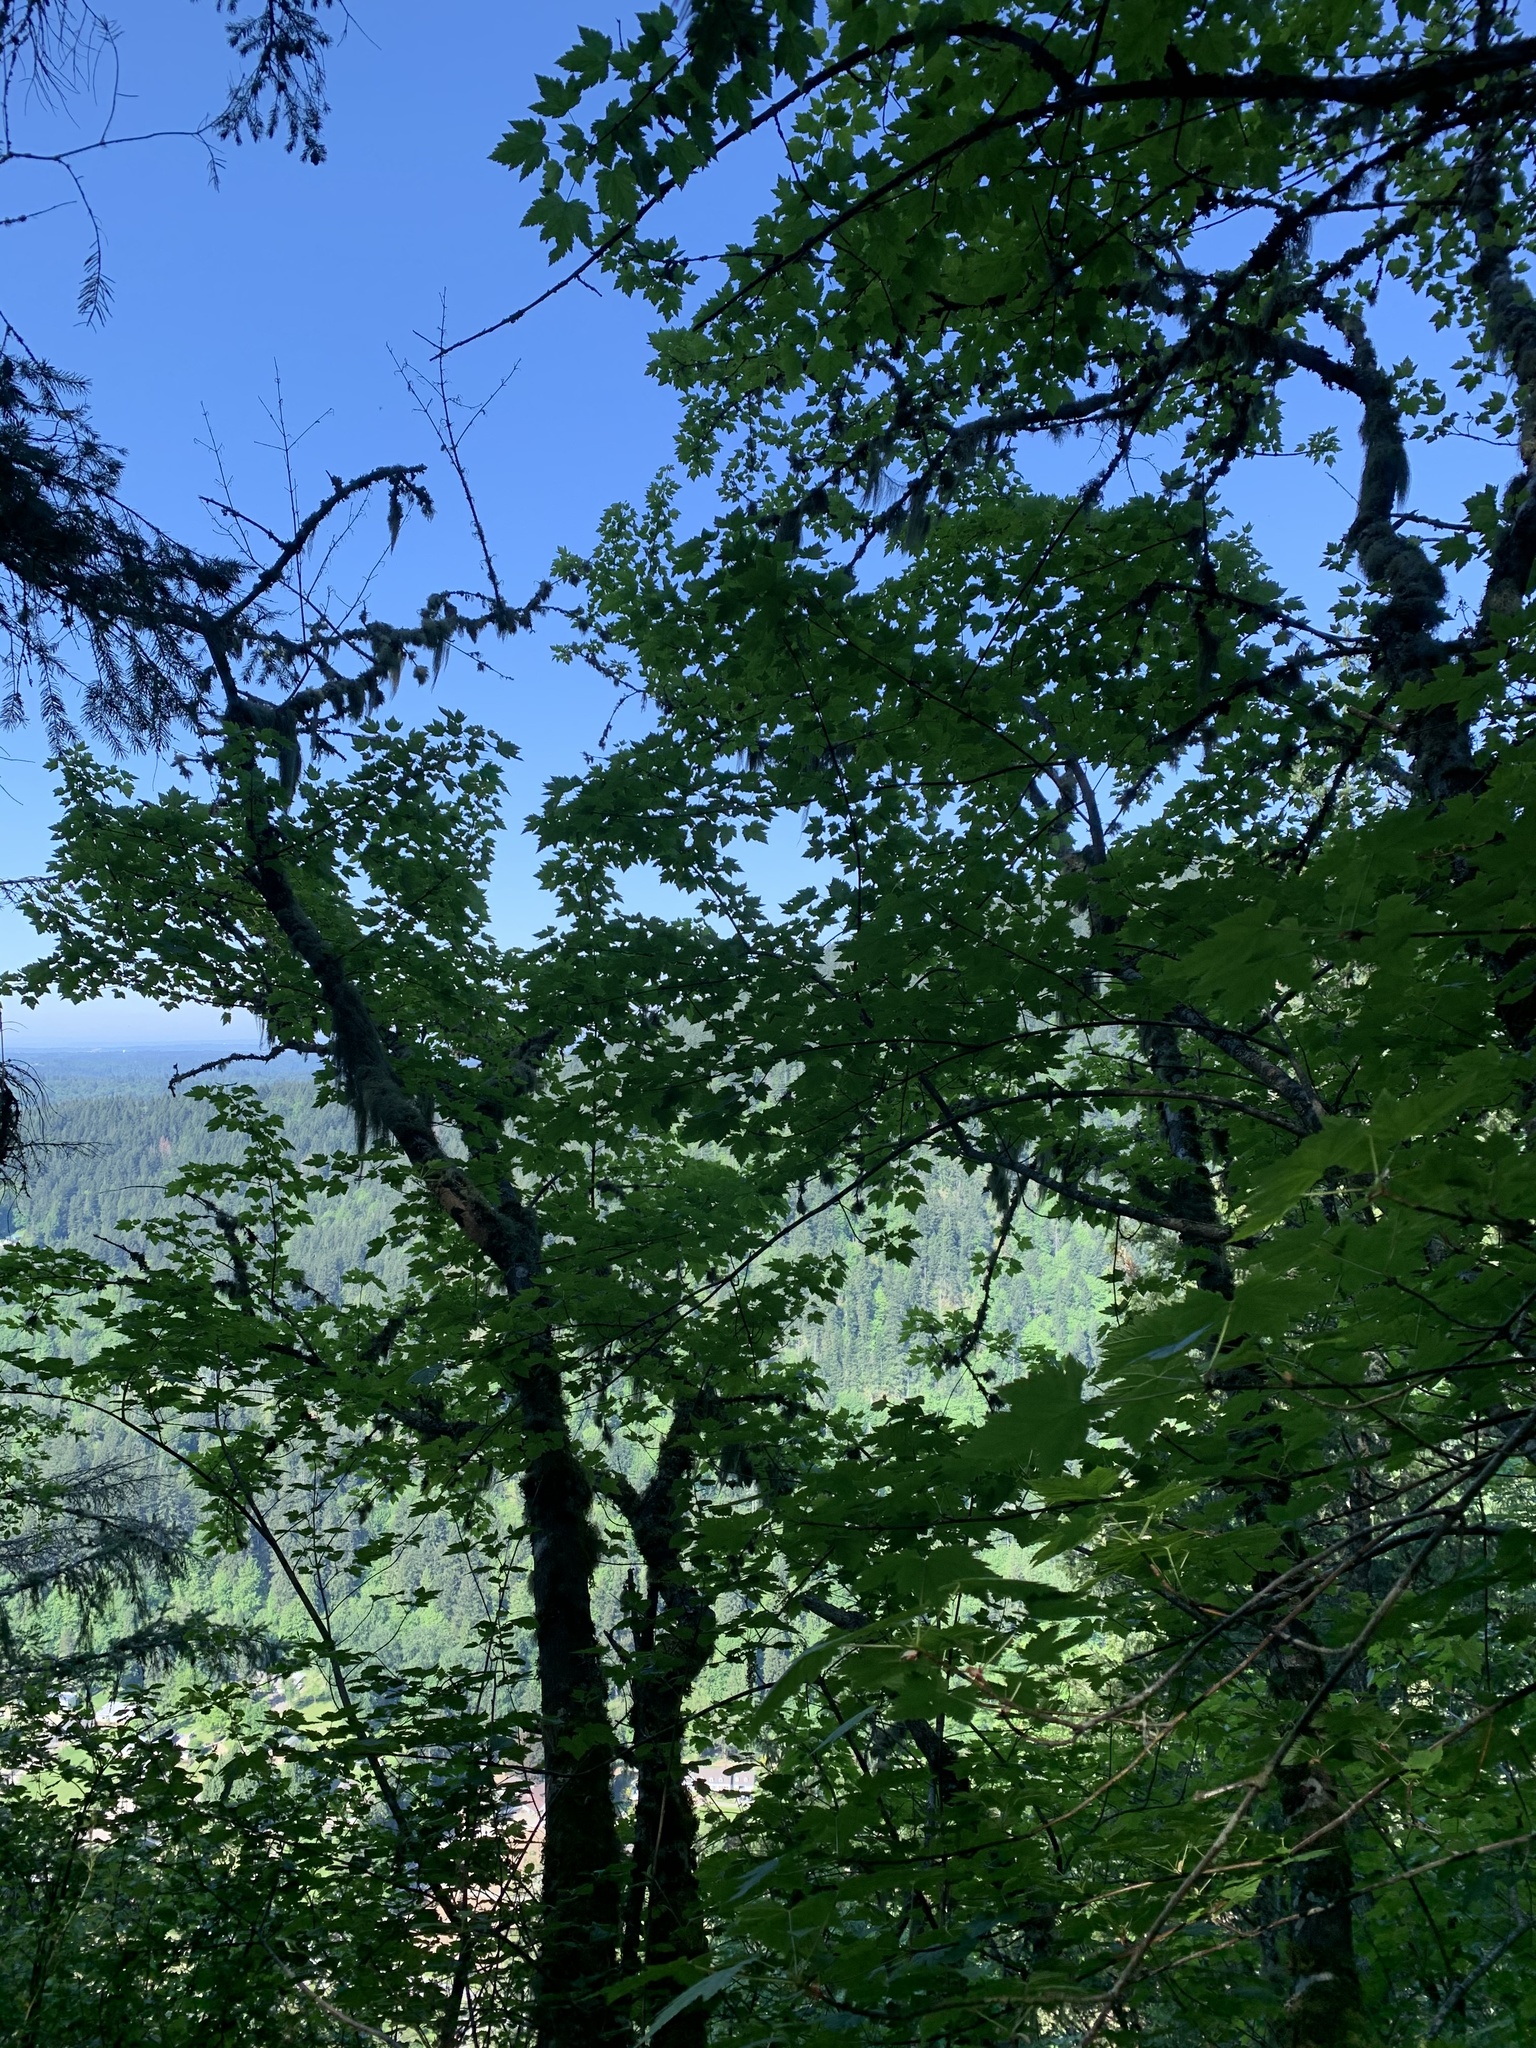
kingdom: Plantae
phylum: Tracheophyta
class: Magnoliopsida
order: Sapindales
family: Sapindaceae
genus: Acer
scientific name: Acer glabrum
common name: Rocky mountain maple
